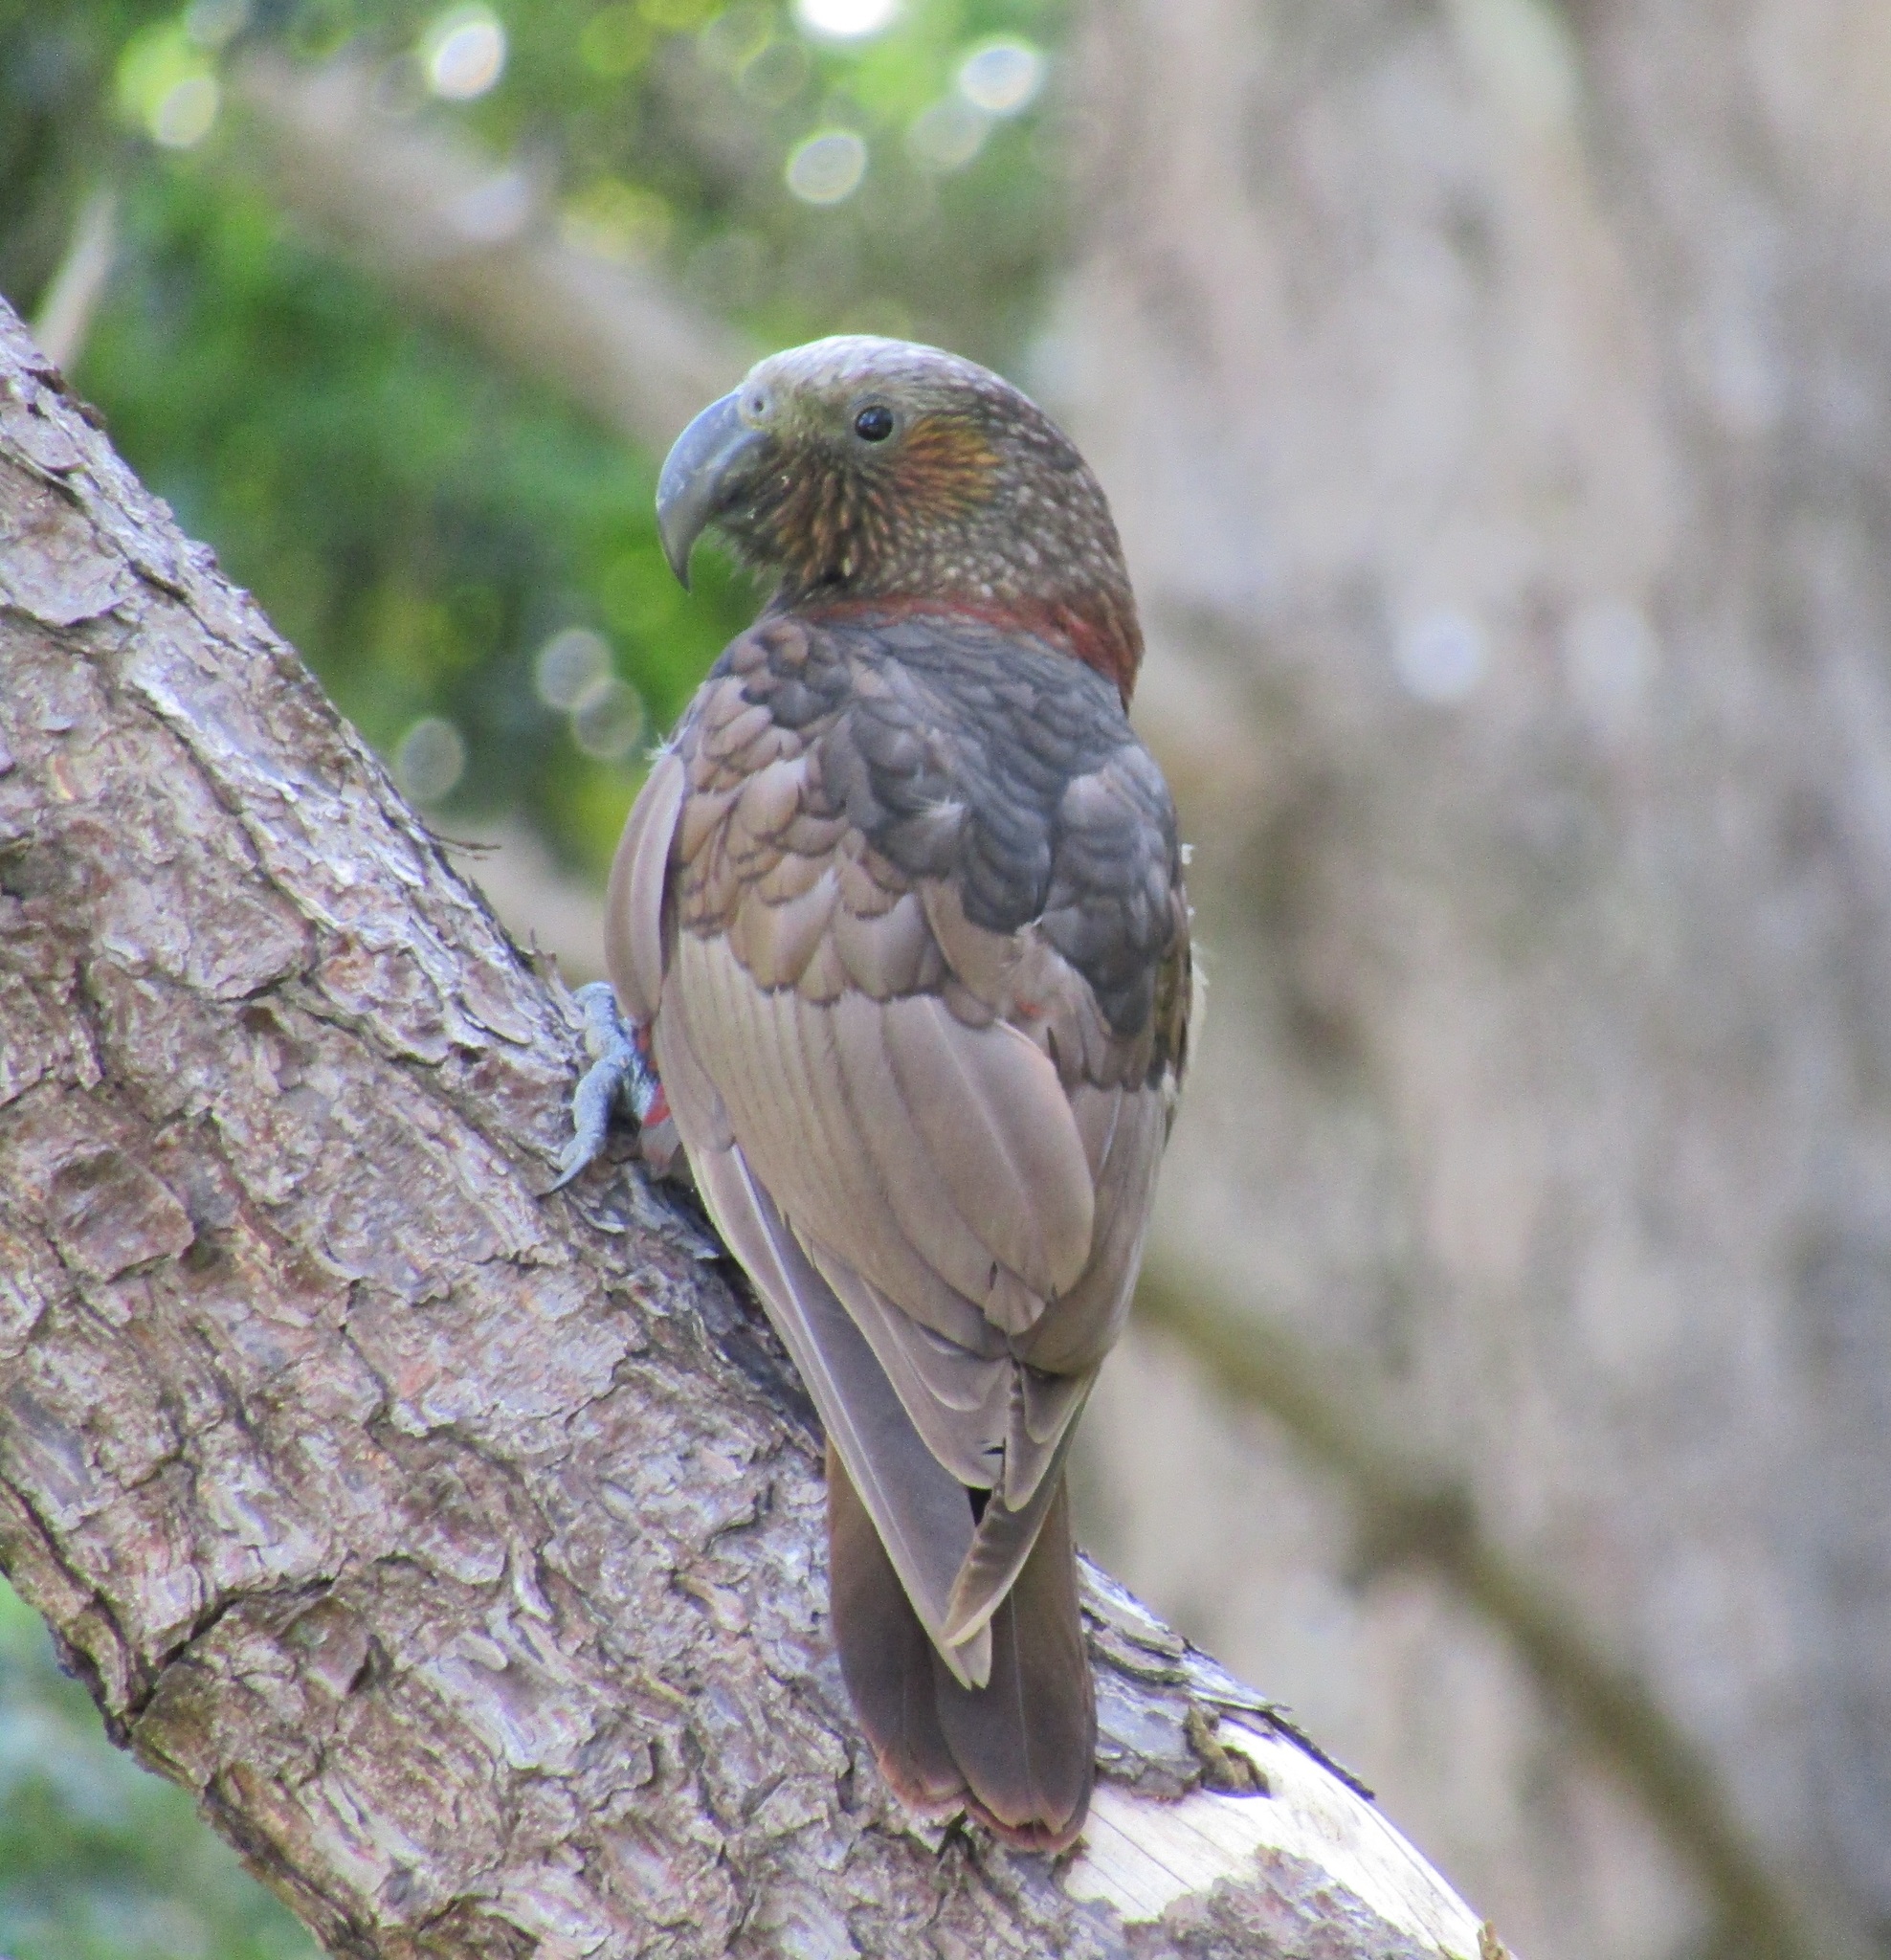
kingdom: Animalia
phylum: Chordata
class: Aves
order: Psittaciformes
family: Psittacidae
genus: Nestor
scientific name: Nestor meridionalis
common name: New zealand kaka
